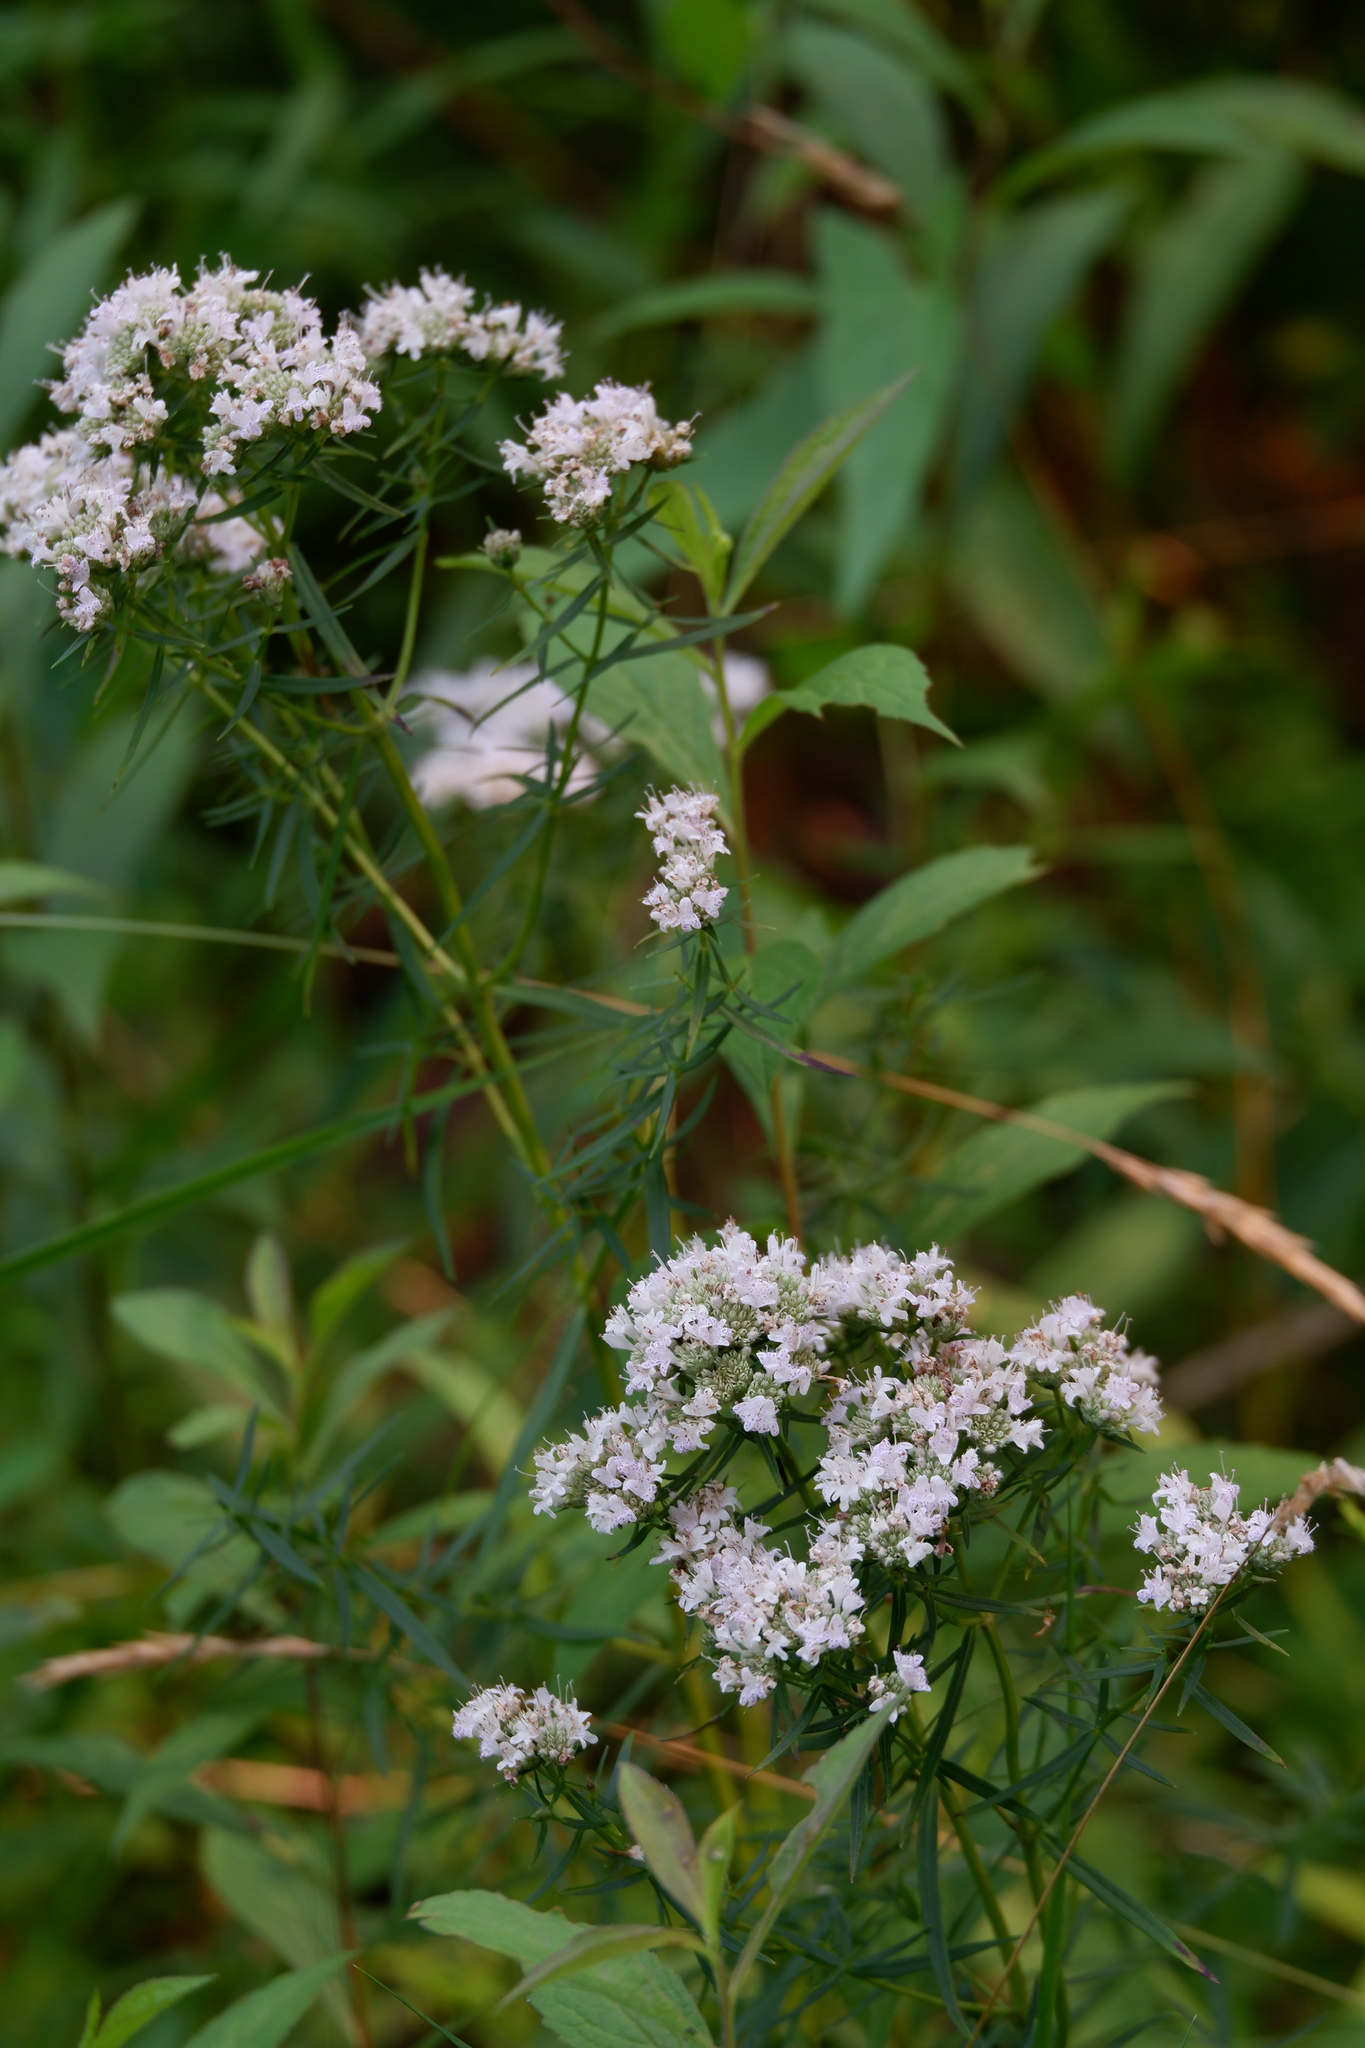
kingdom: Plantae
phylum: Tracheophyta
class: Magnoliopsida
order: Lamiales
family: Lamiaceae
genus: Pycnanthemum
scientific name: Pycnanthemum tenuifolium
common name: Narrow-leaf mountain-mint
